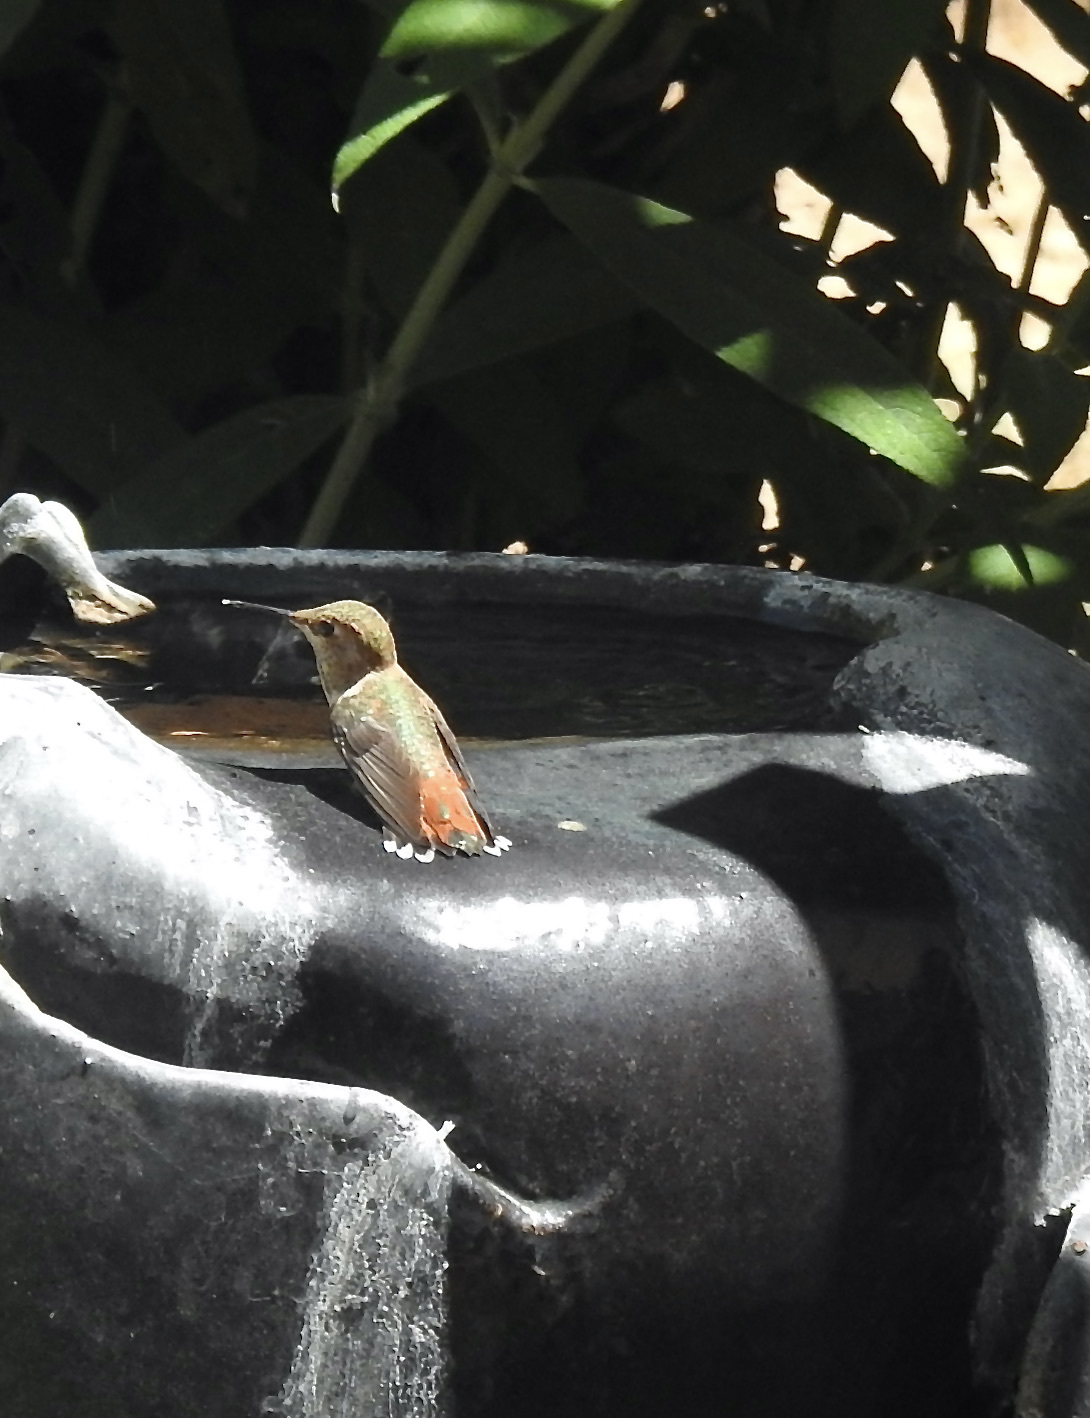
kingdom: Animalia
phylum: Chordata
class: Aves
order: Apodiformes
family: Trochilidae
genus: Selasphorus
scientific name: Selasphorus
